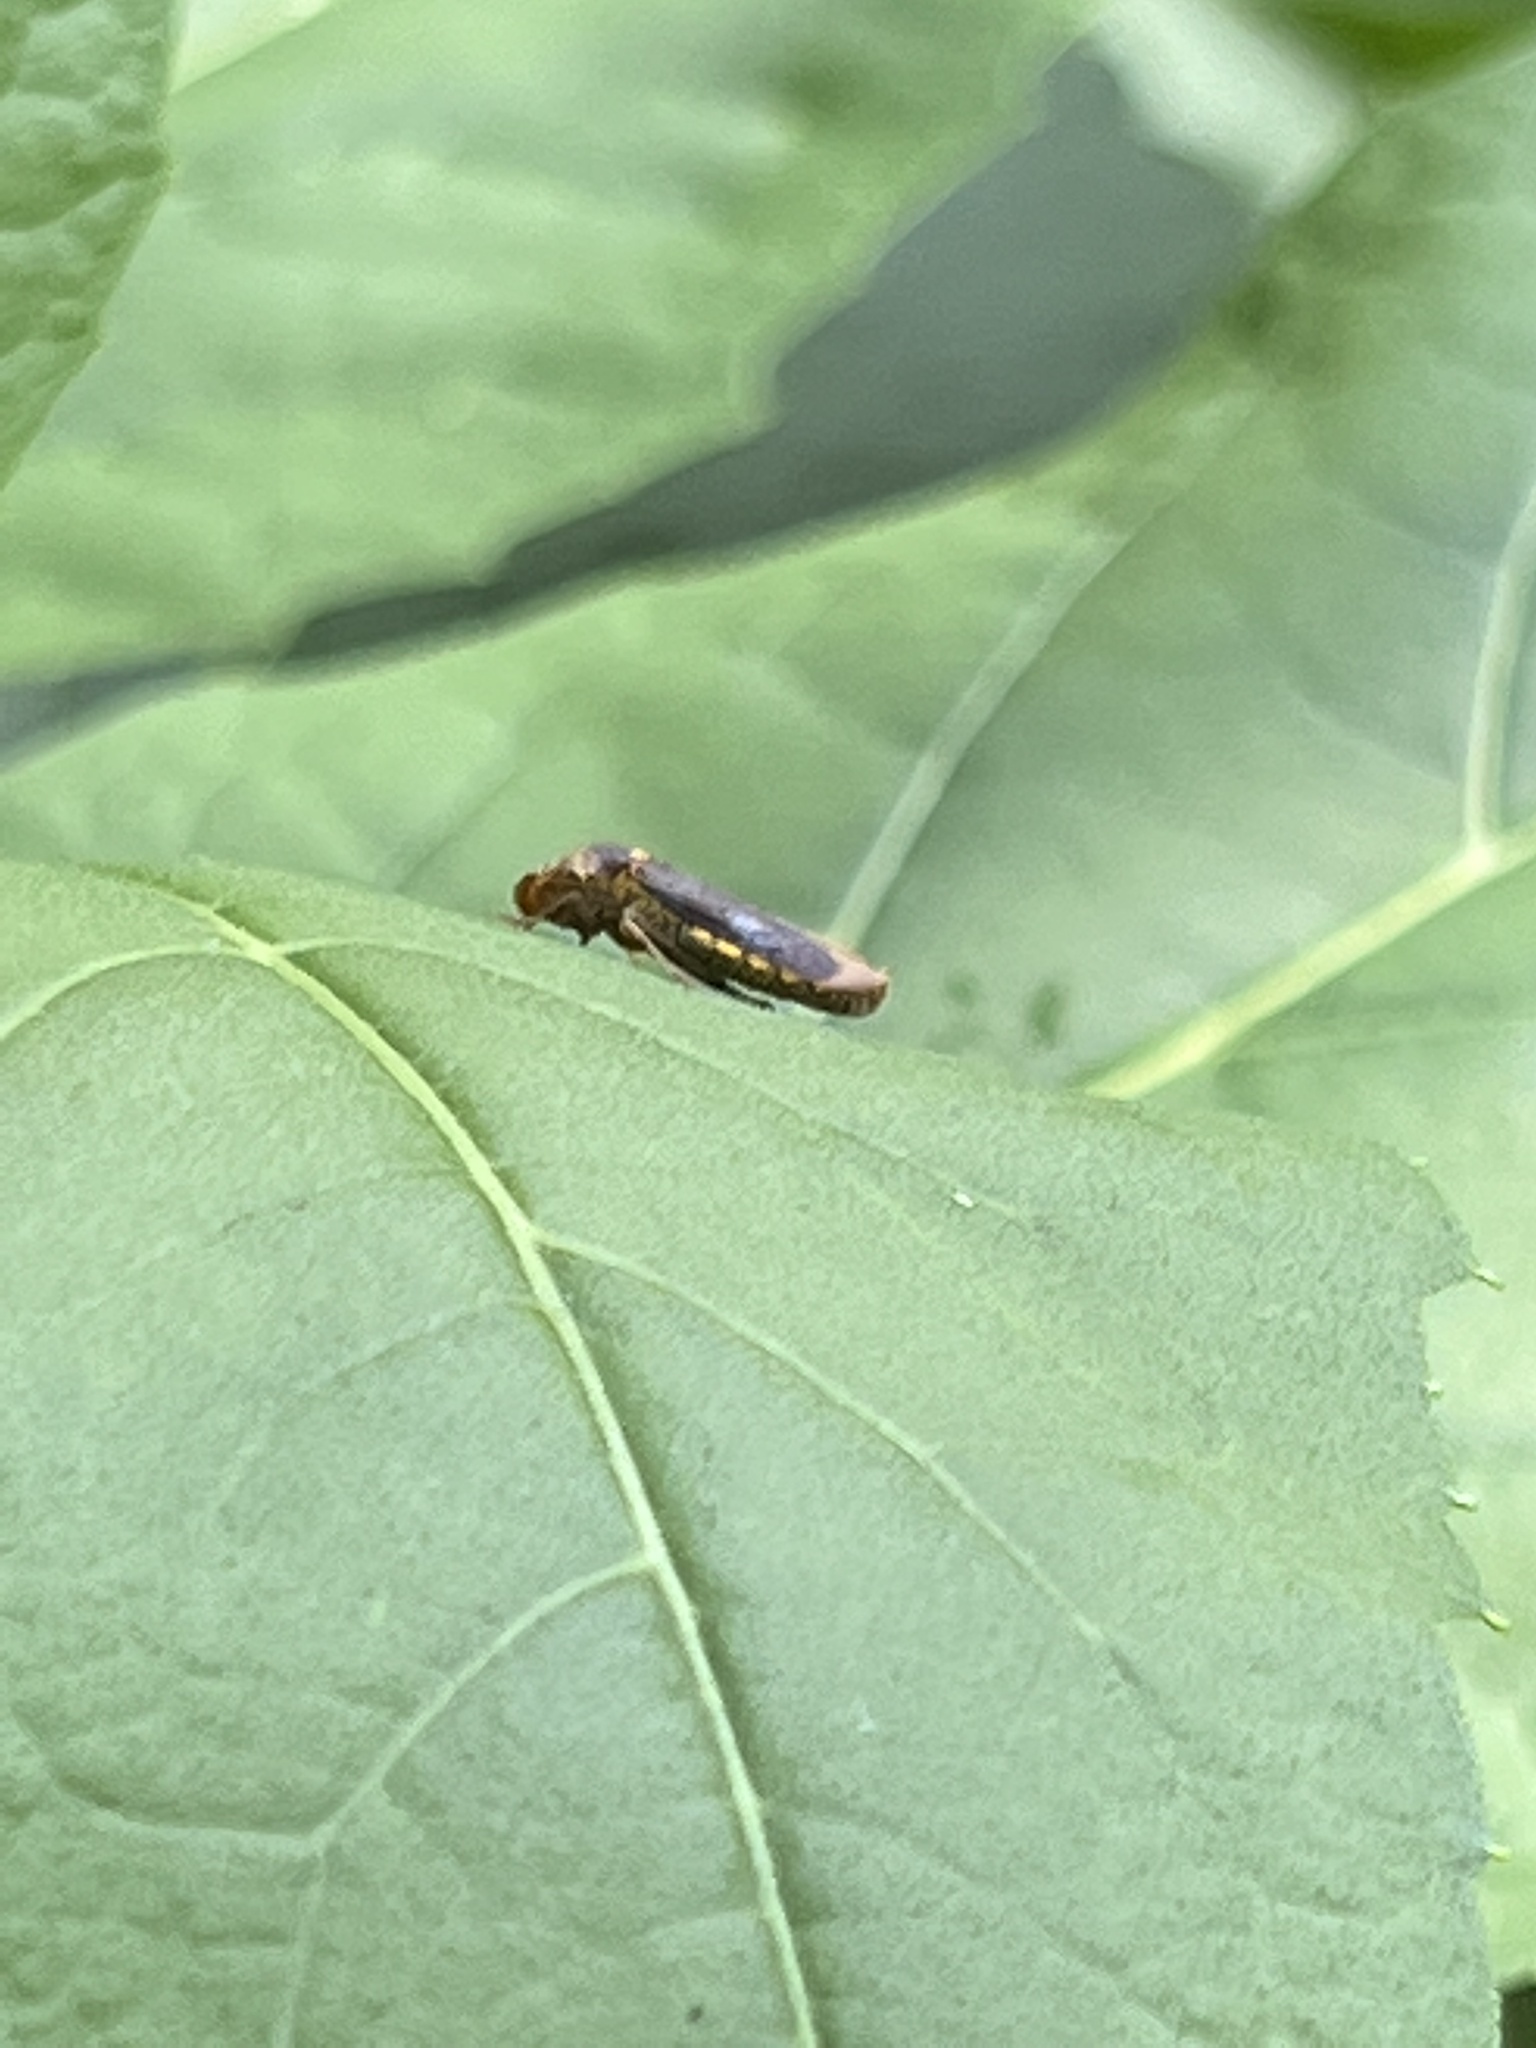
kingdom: Animalia
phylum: Arthropoda
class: Insecta
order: Hemiptera
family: Cicadellidae
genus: Oncometopia
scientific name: Oncometopia orbona
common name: Broad-headed sharpshooter
